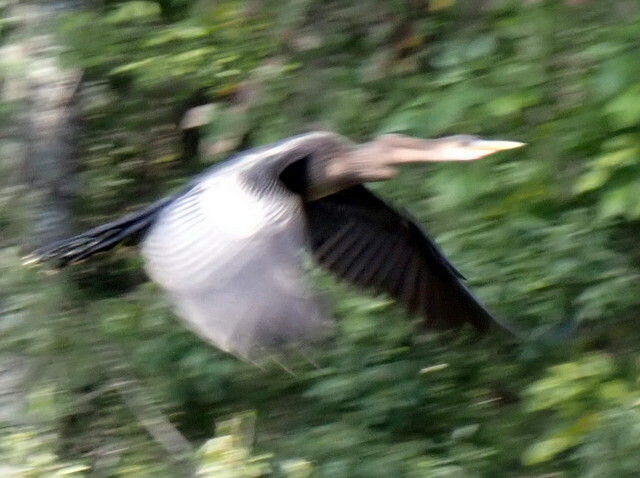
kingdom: Animalia
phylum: Chordata
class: Aves
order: Suliformes
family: Anhingidae
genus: Anhinga
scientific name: Anhinga anhinga
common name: Anhinga
